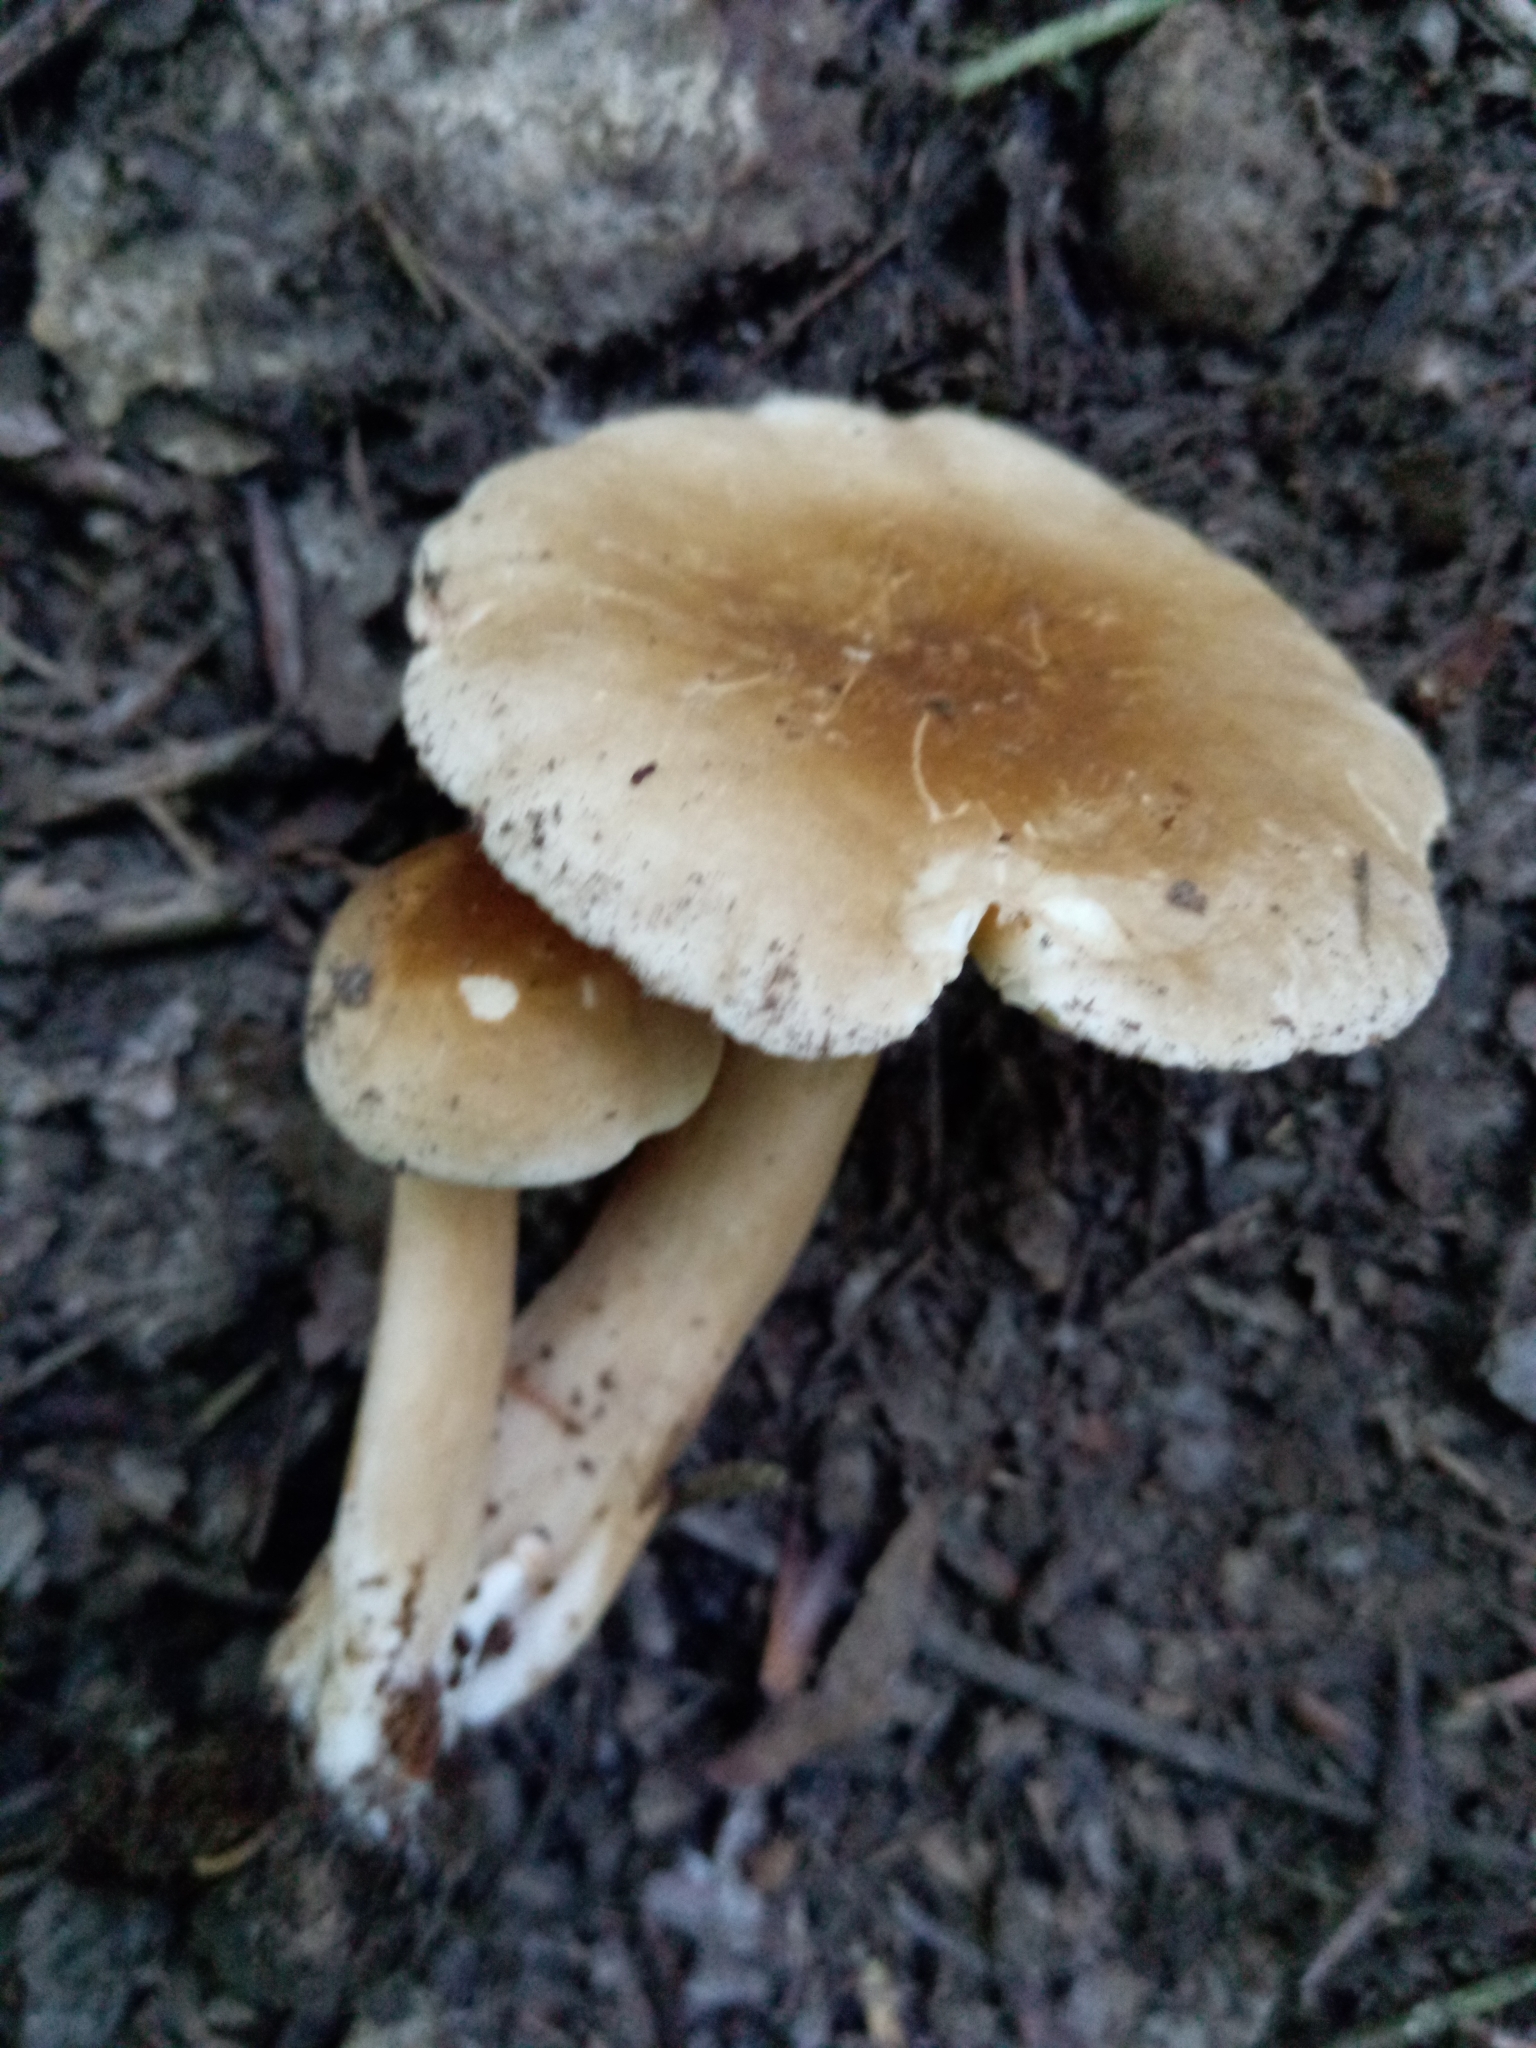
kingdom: Fungi
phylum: Basidiomycota
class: Agaricomycetes
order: Russulales
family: Russulaceae
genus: Lactarius
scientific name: Lactarius subvernalis
